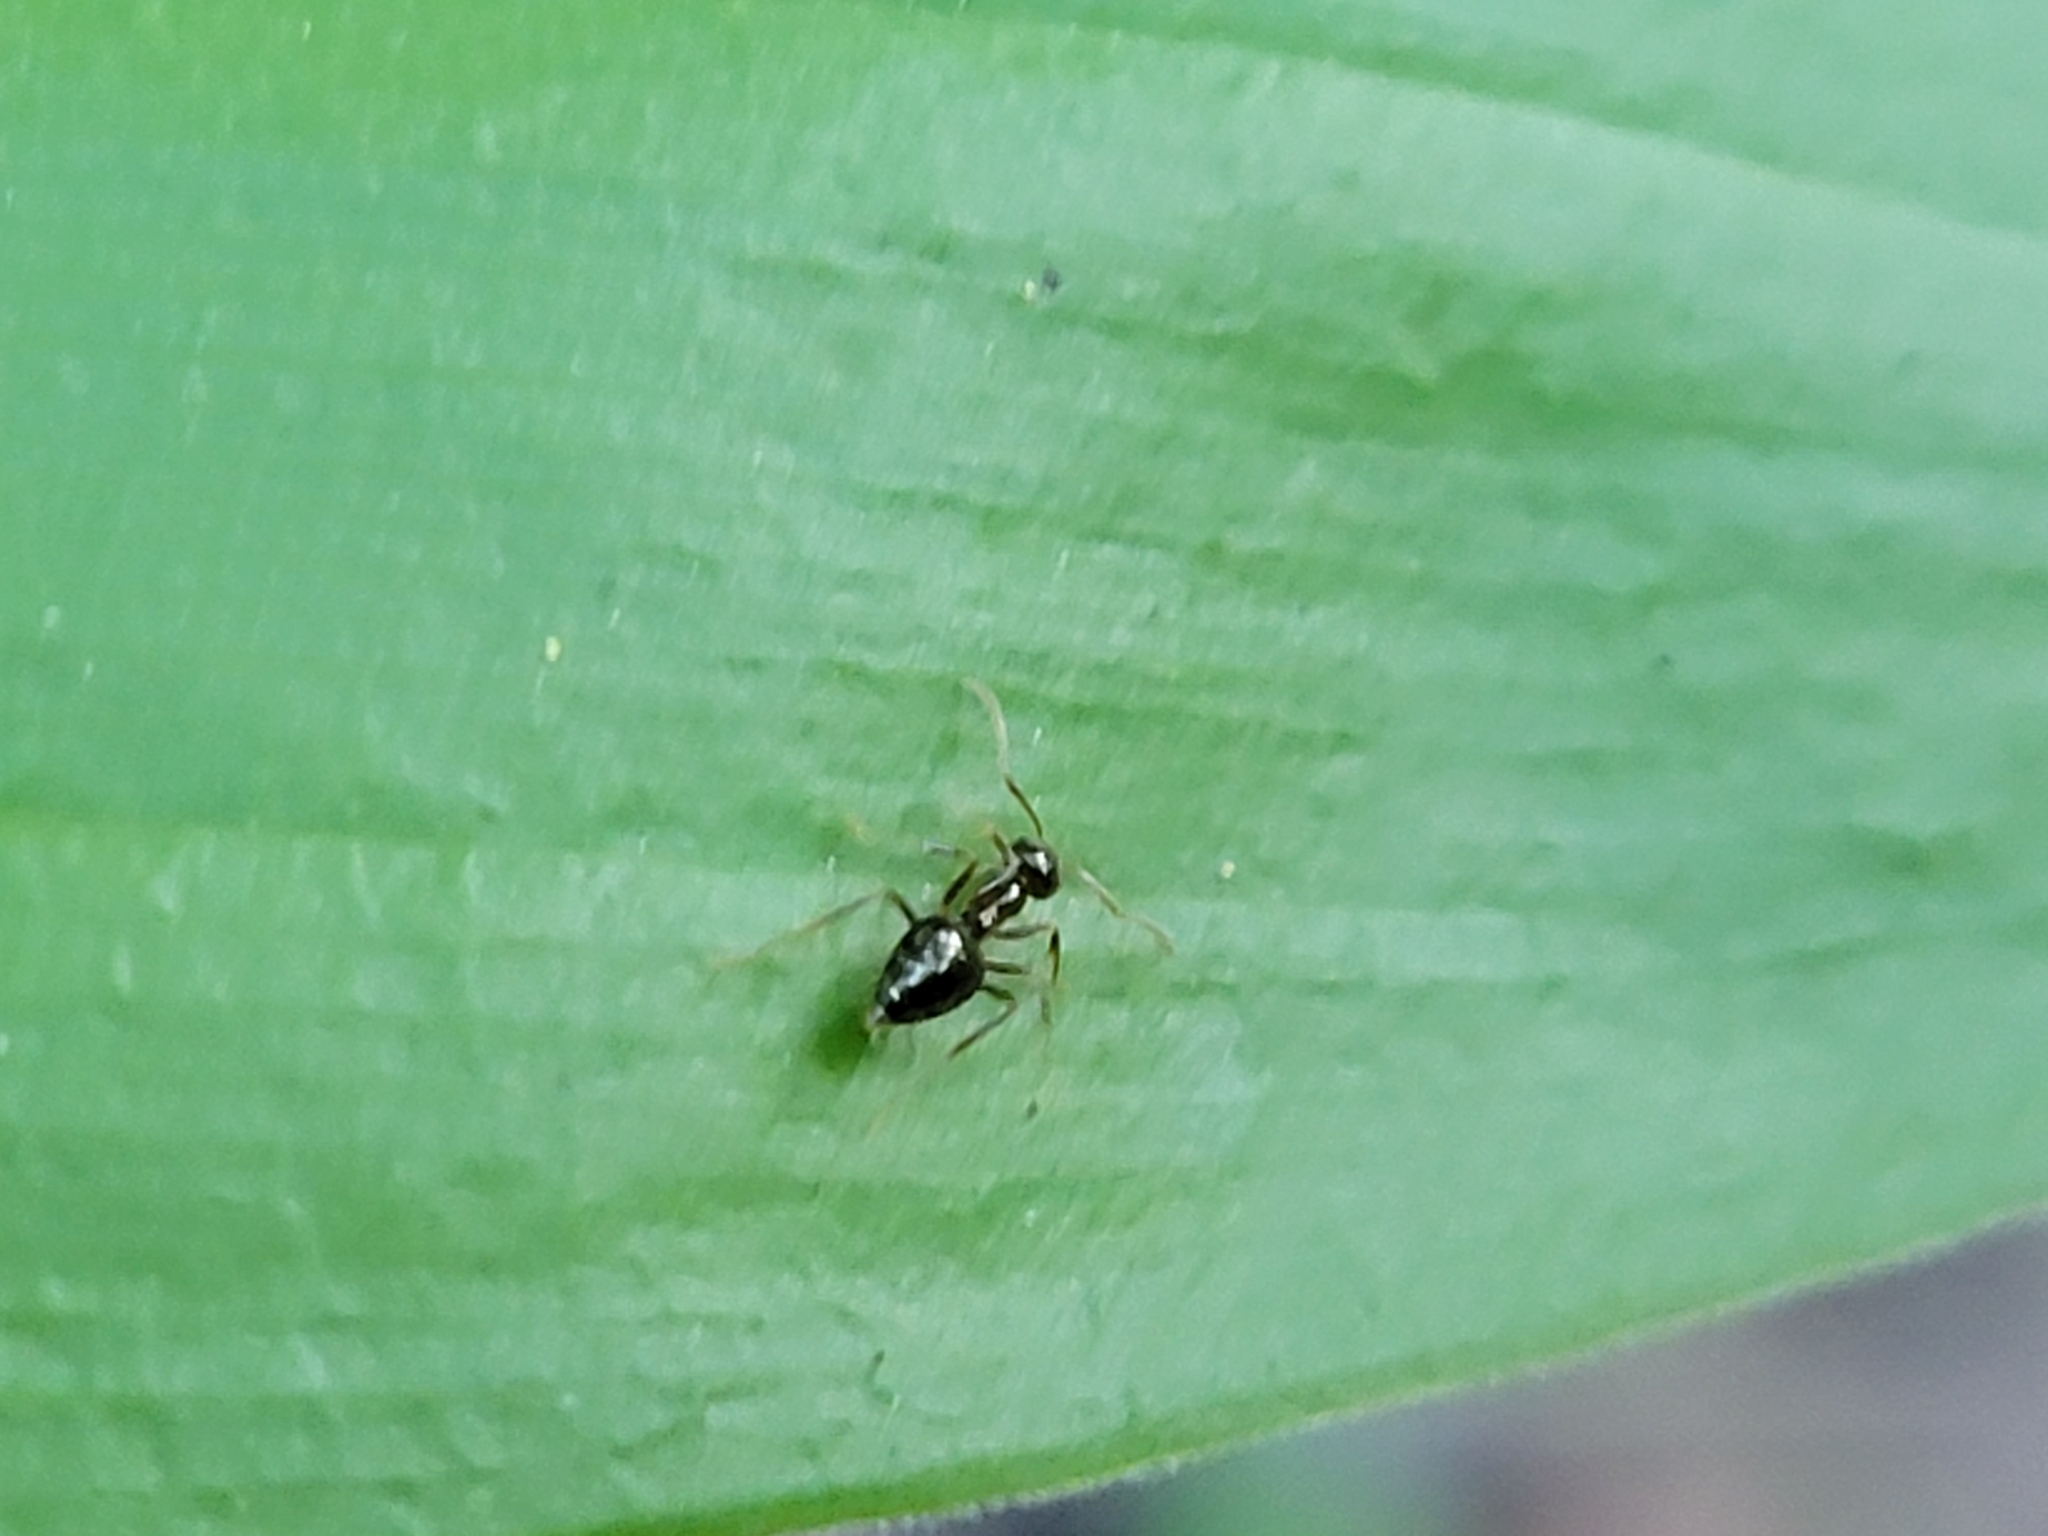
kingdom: Animalia
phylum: Arthropoda
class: Insecta
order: Hymenoptera
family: Formicidae
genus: Prenolepis
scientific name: Prenolepis imparis
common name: Small honey ant
